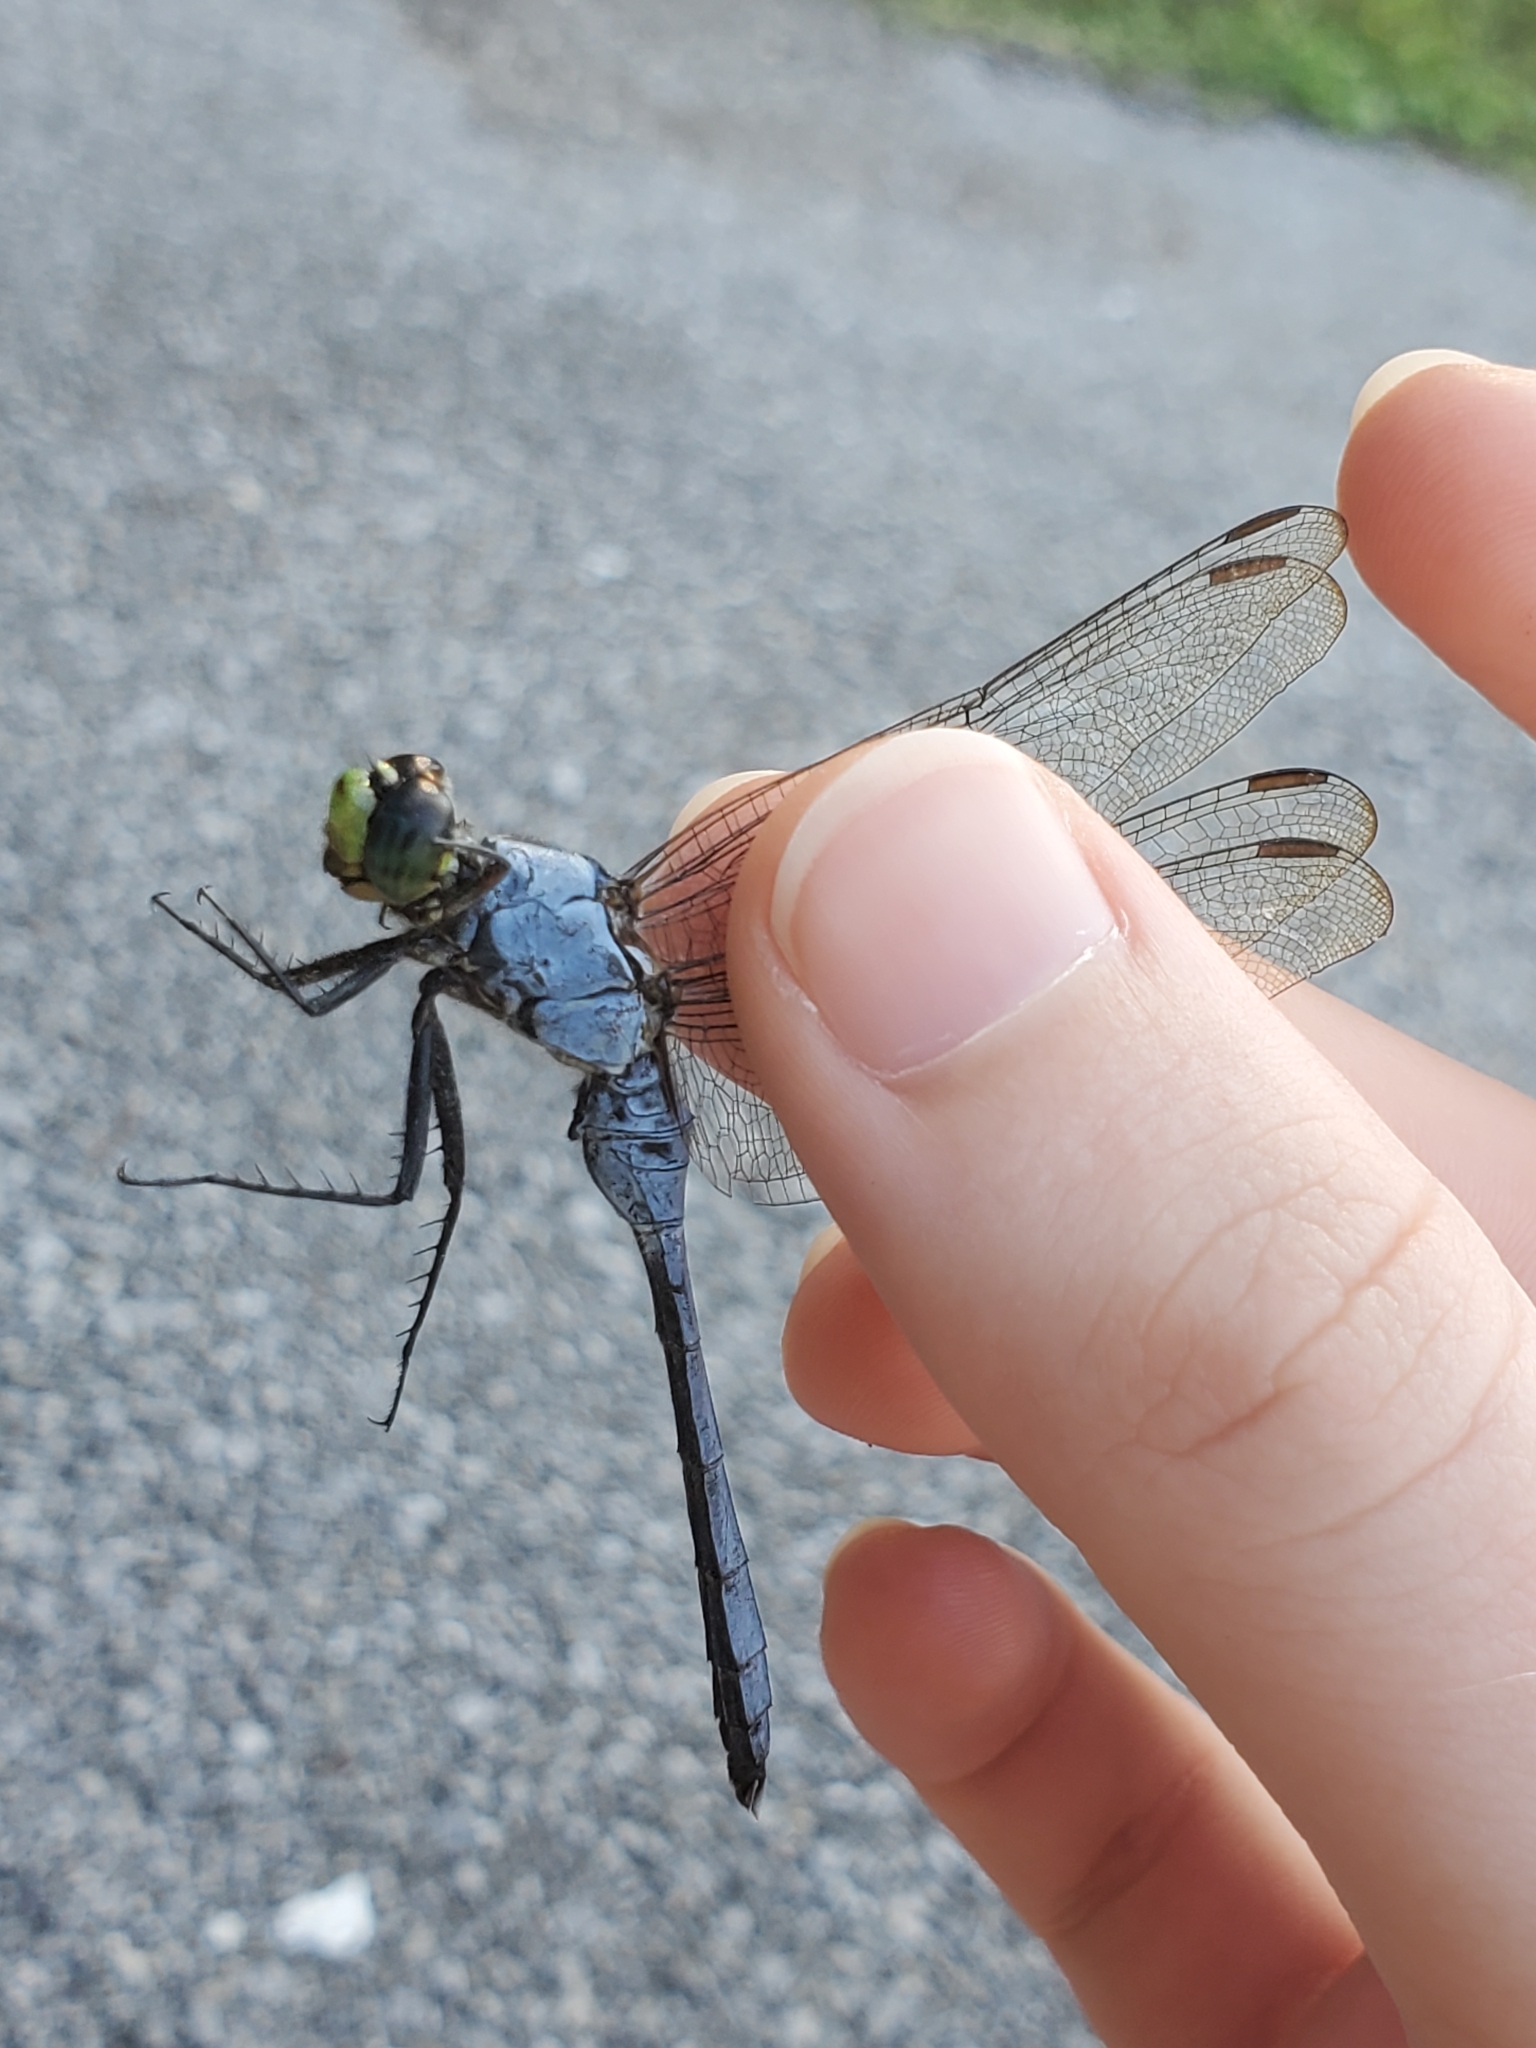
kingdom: Animalia
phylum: Arthropoda
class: Insecta
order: Odonata
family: Libellulidae
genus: Erythemis
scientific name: Erythemis simplicicollis
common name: Eastern pondhawk
